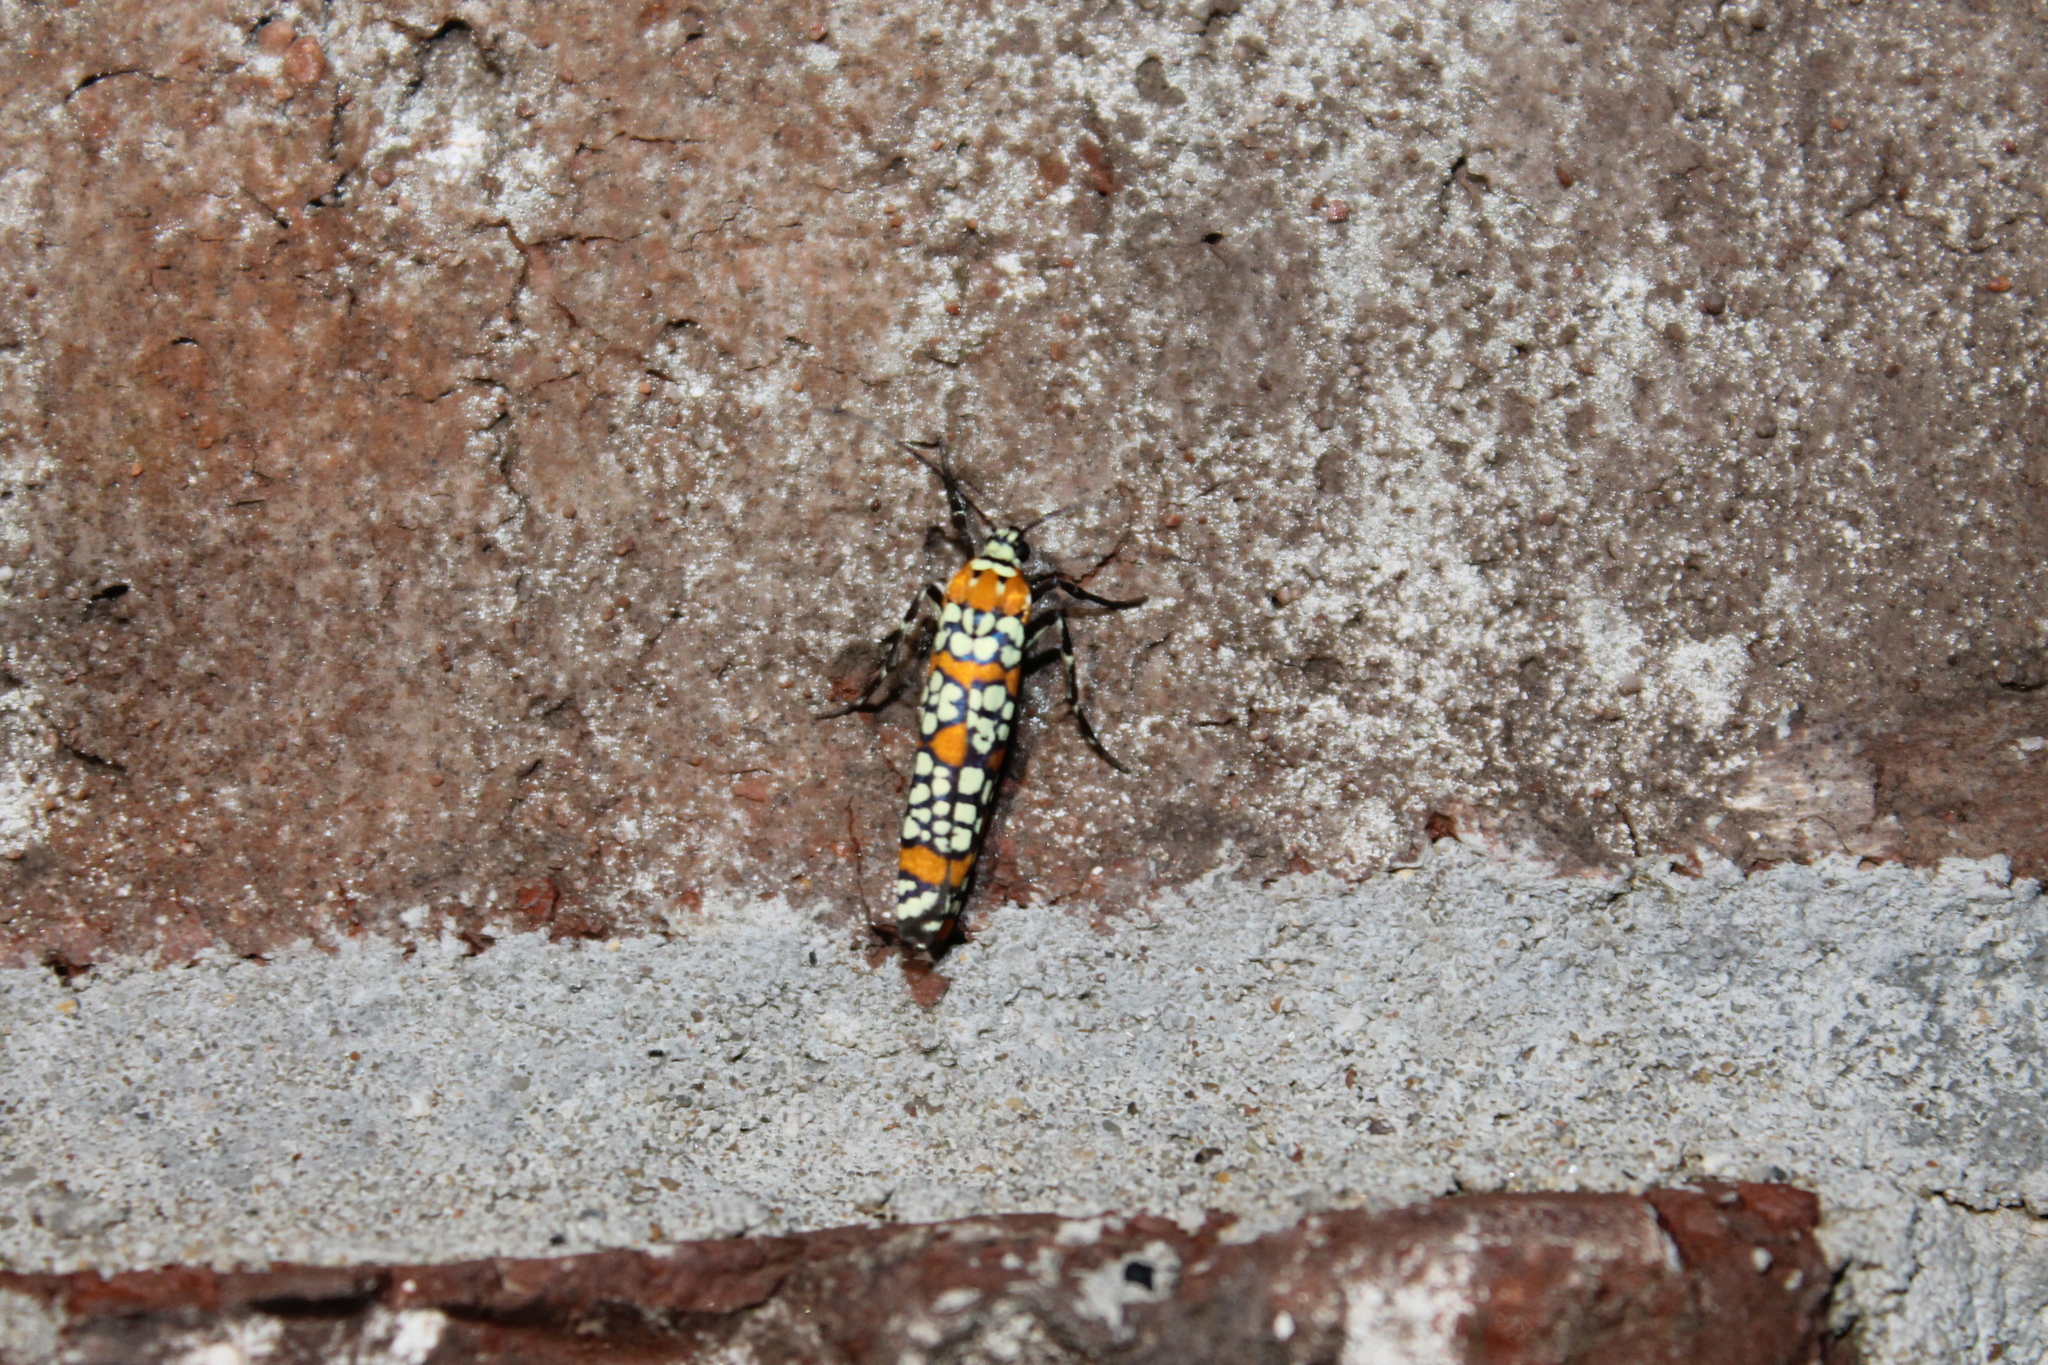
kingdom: Animalia
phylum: Arthropoda
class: Insecta
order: Lepidoptera
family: Attevidae
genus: Atteva
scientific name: Atteva punctella
